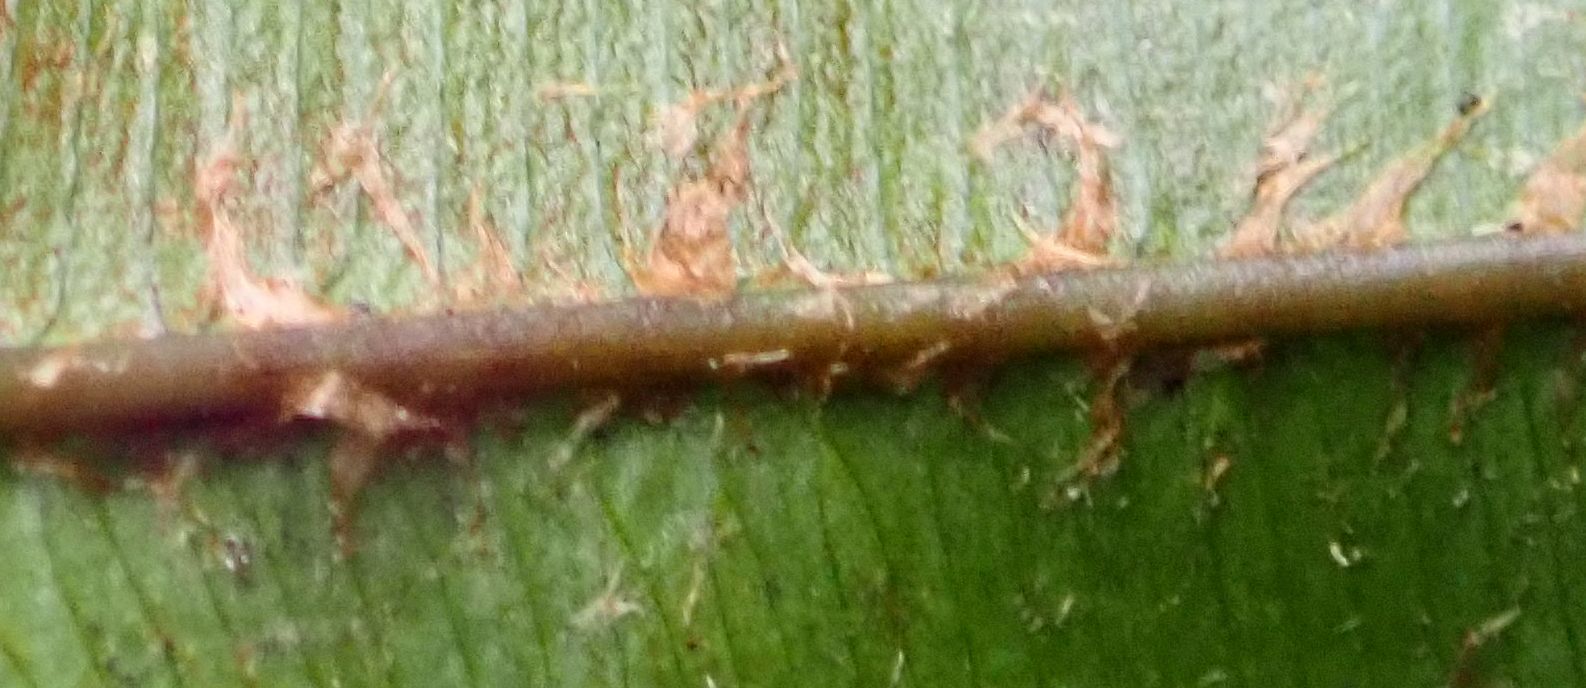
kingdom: Plantae
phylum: Tracheophyta
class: Polypodiopsida
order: Polypodiales
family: Blechnaceae
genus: Parablechnum
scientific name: Parablechnum minus
